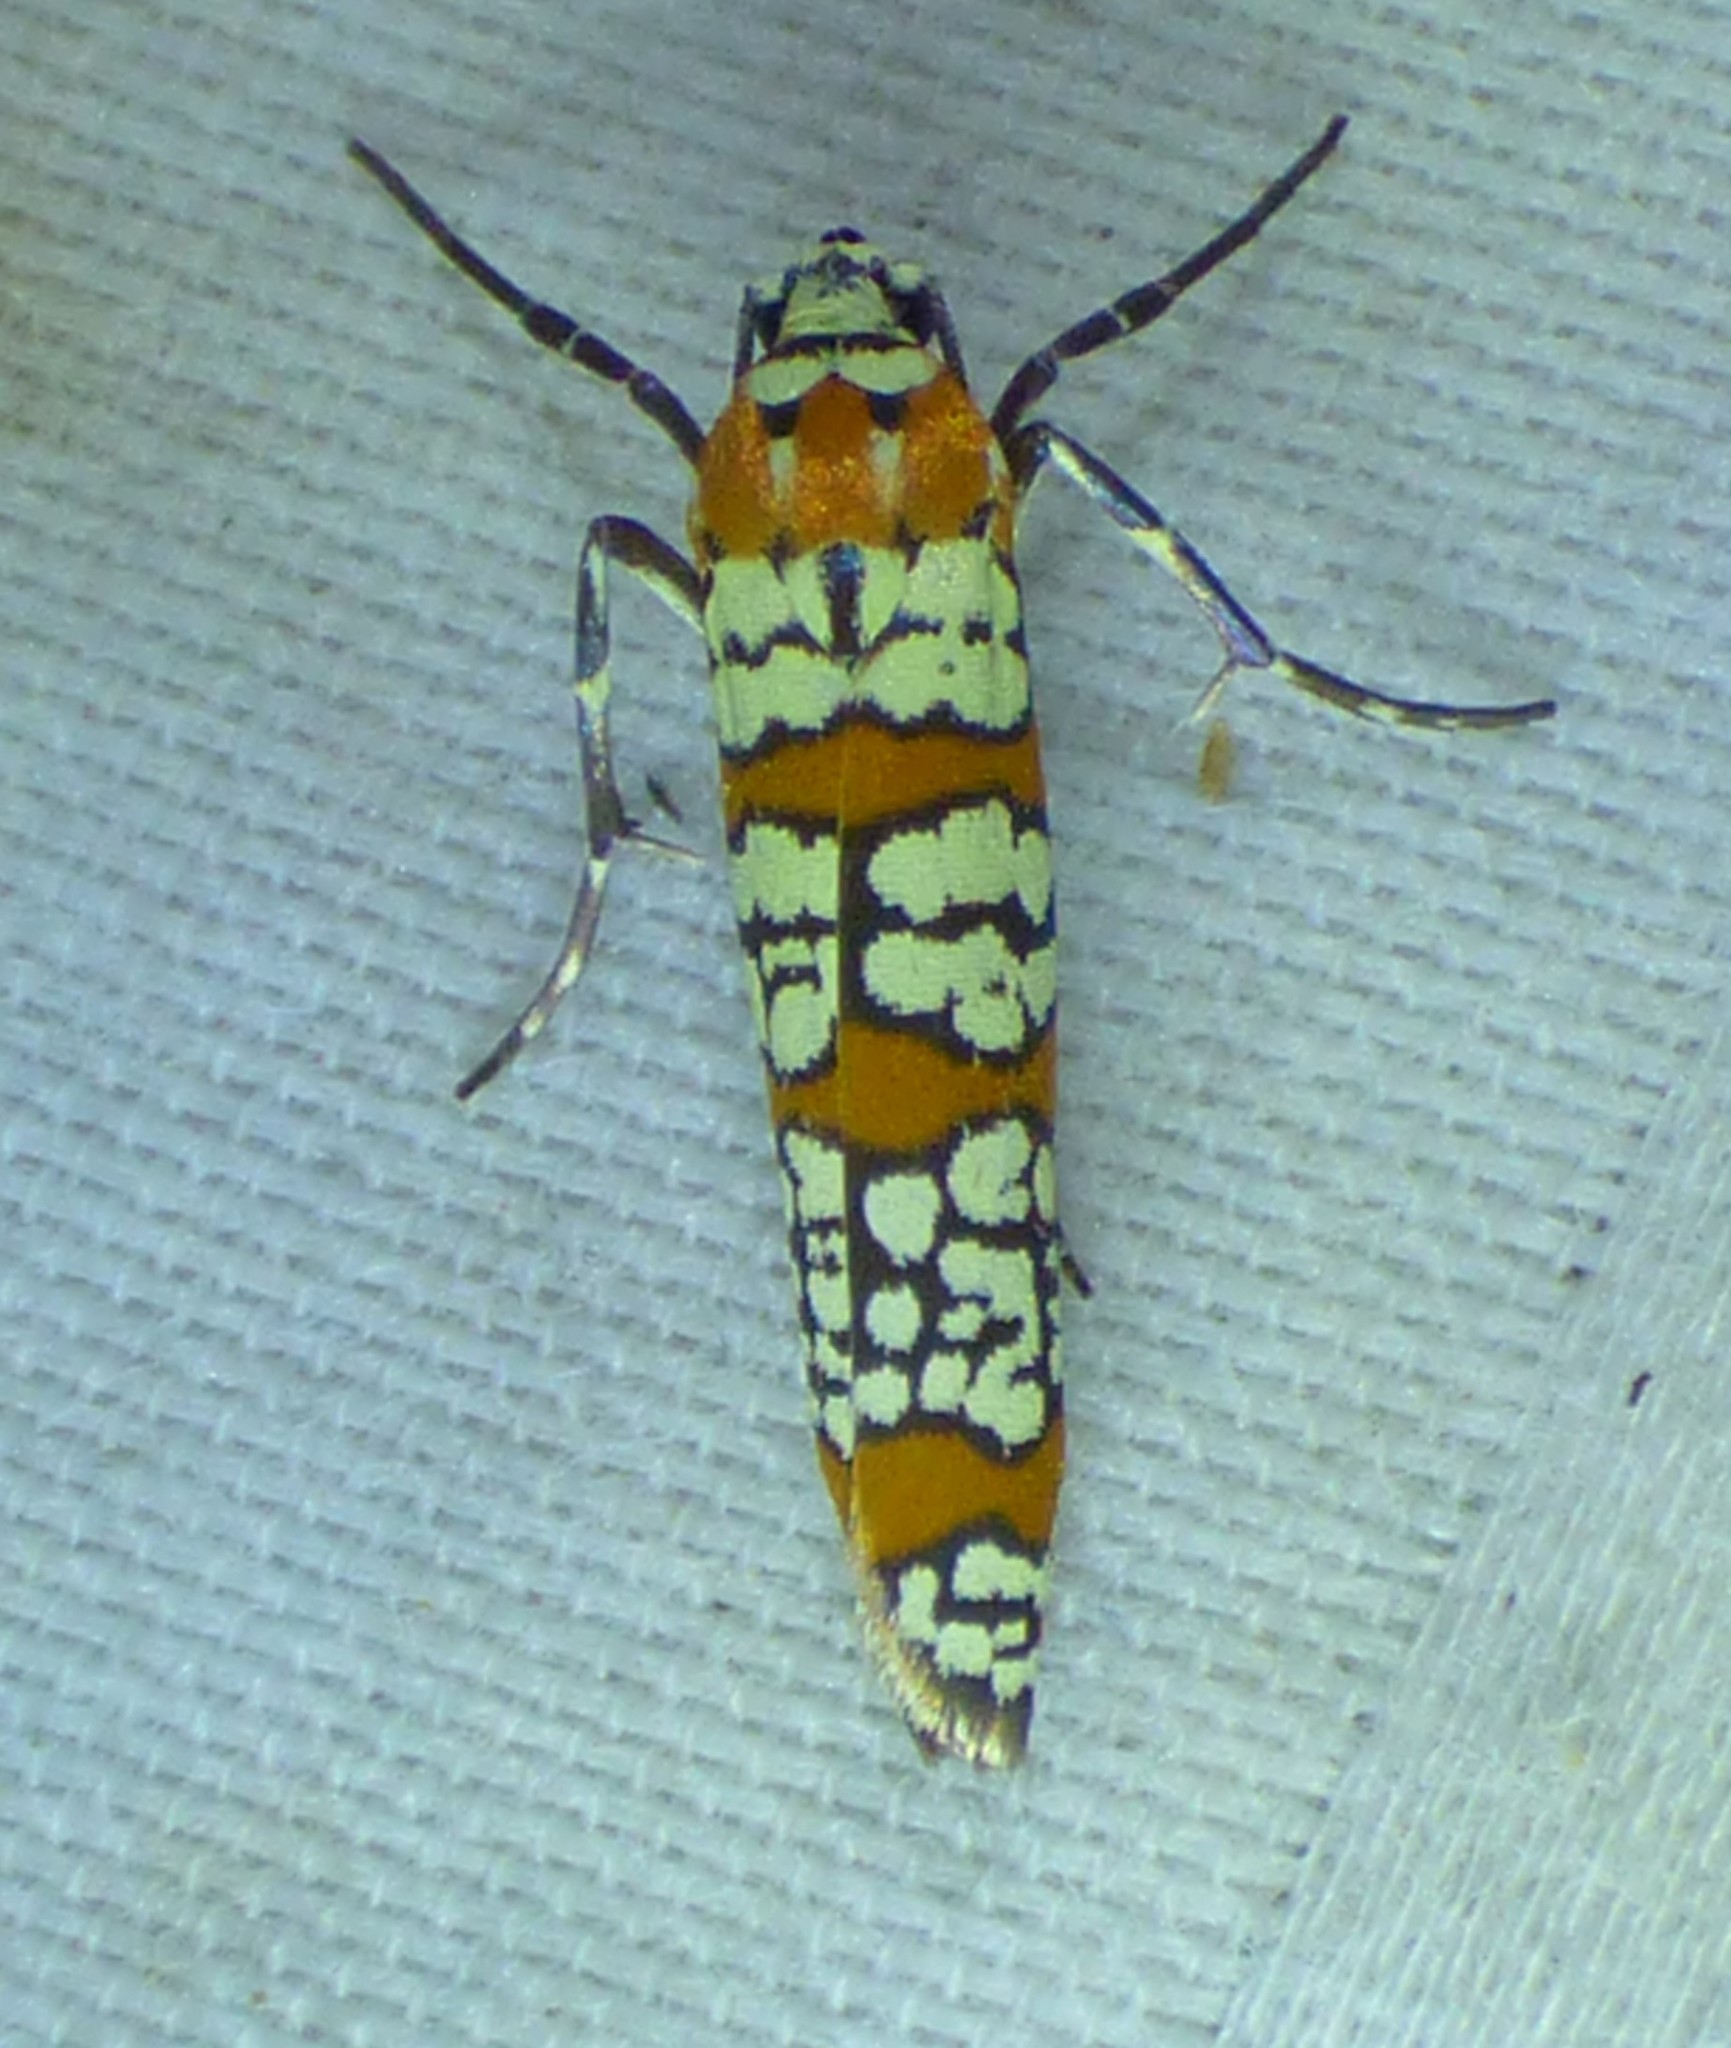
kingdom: Animalia
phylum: Arthropoda
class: Insecta
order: Lepidoptera
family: Attevidae
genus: Atteva
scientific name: Atteva punctella
